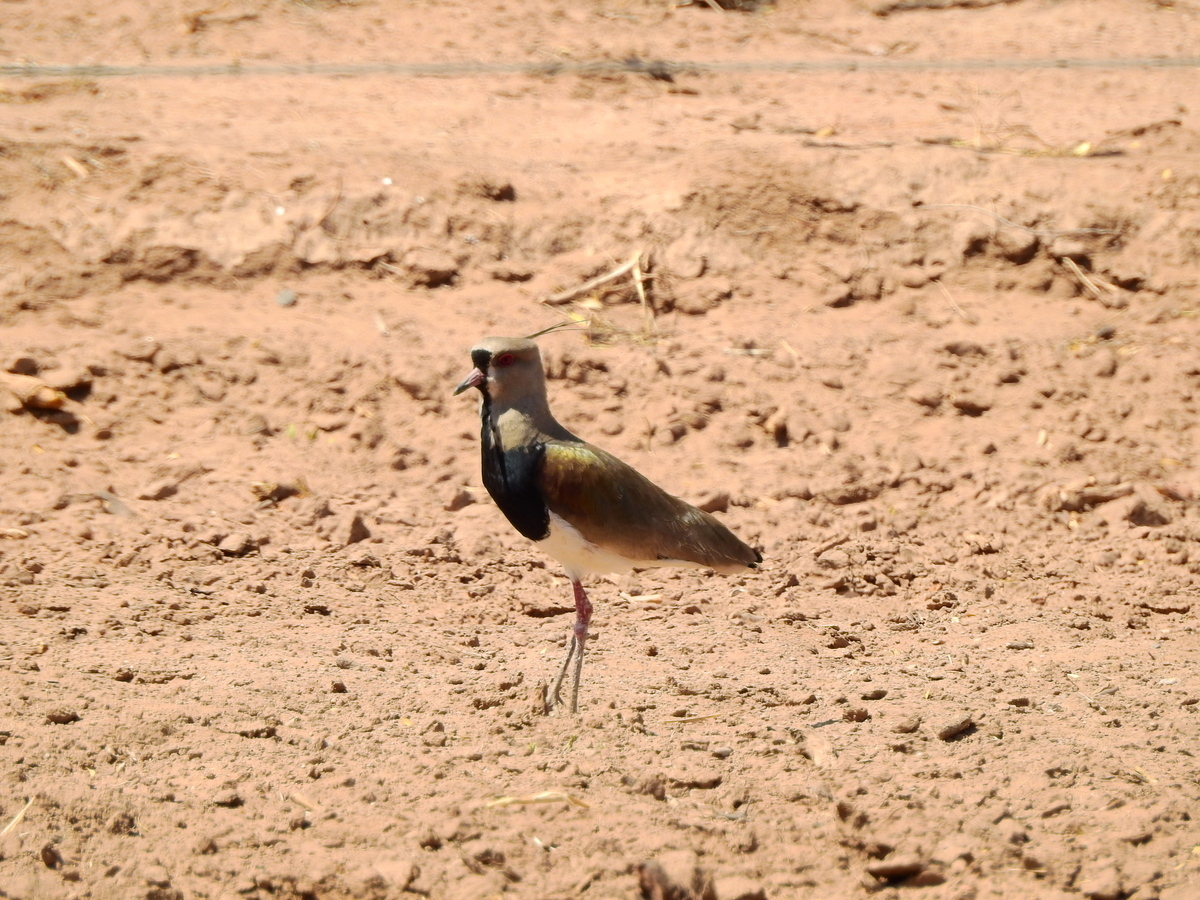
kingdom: Animalia
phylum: Chordata
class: Aves
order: Charadriiformes
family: Charadriidae
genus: Vanellus
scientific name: Vanellus chilensis
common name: Southern lapwing
